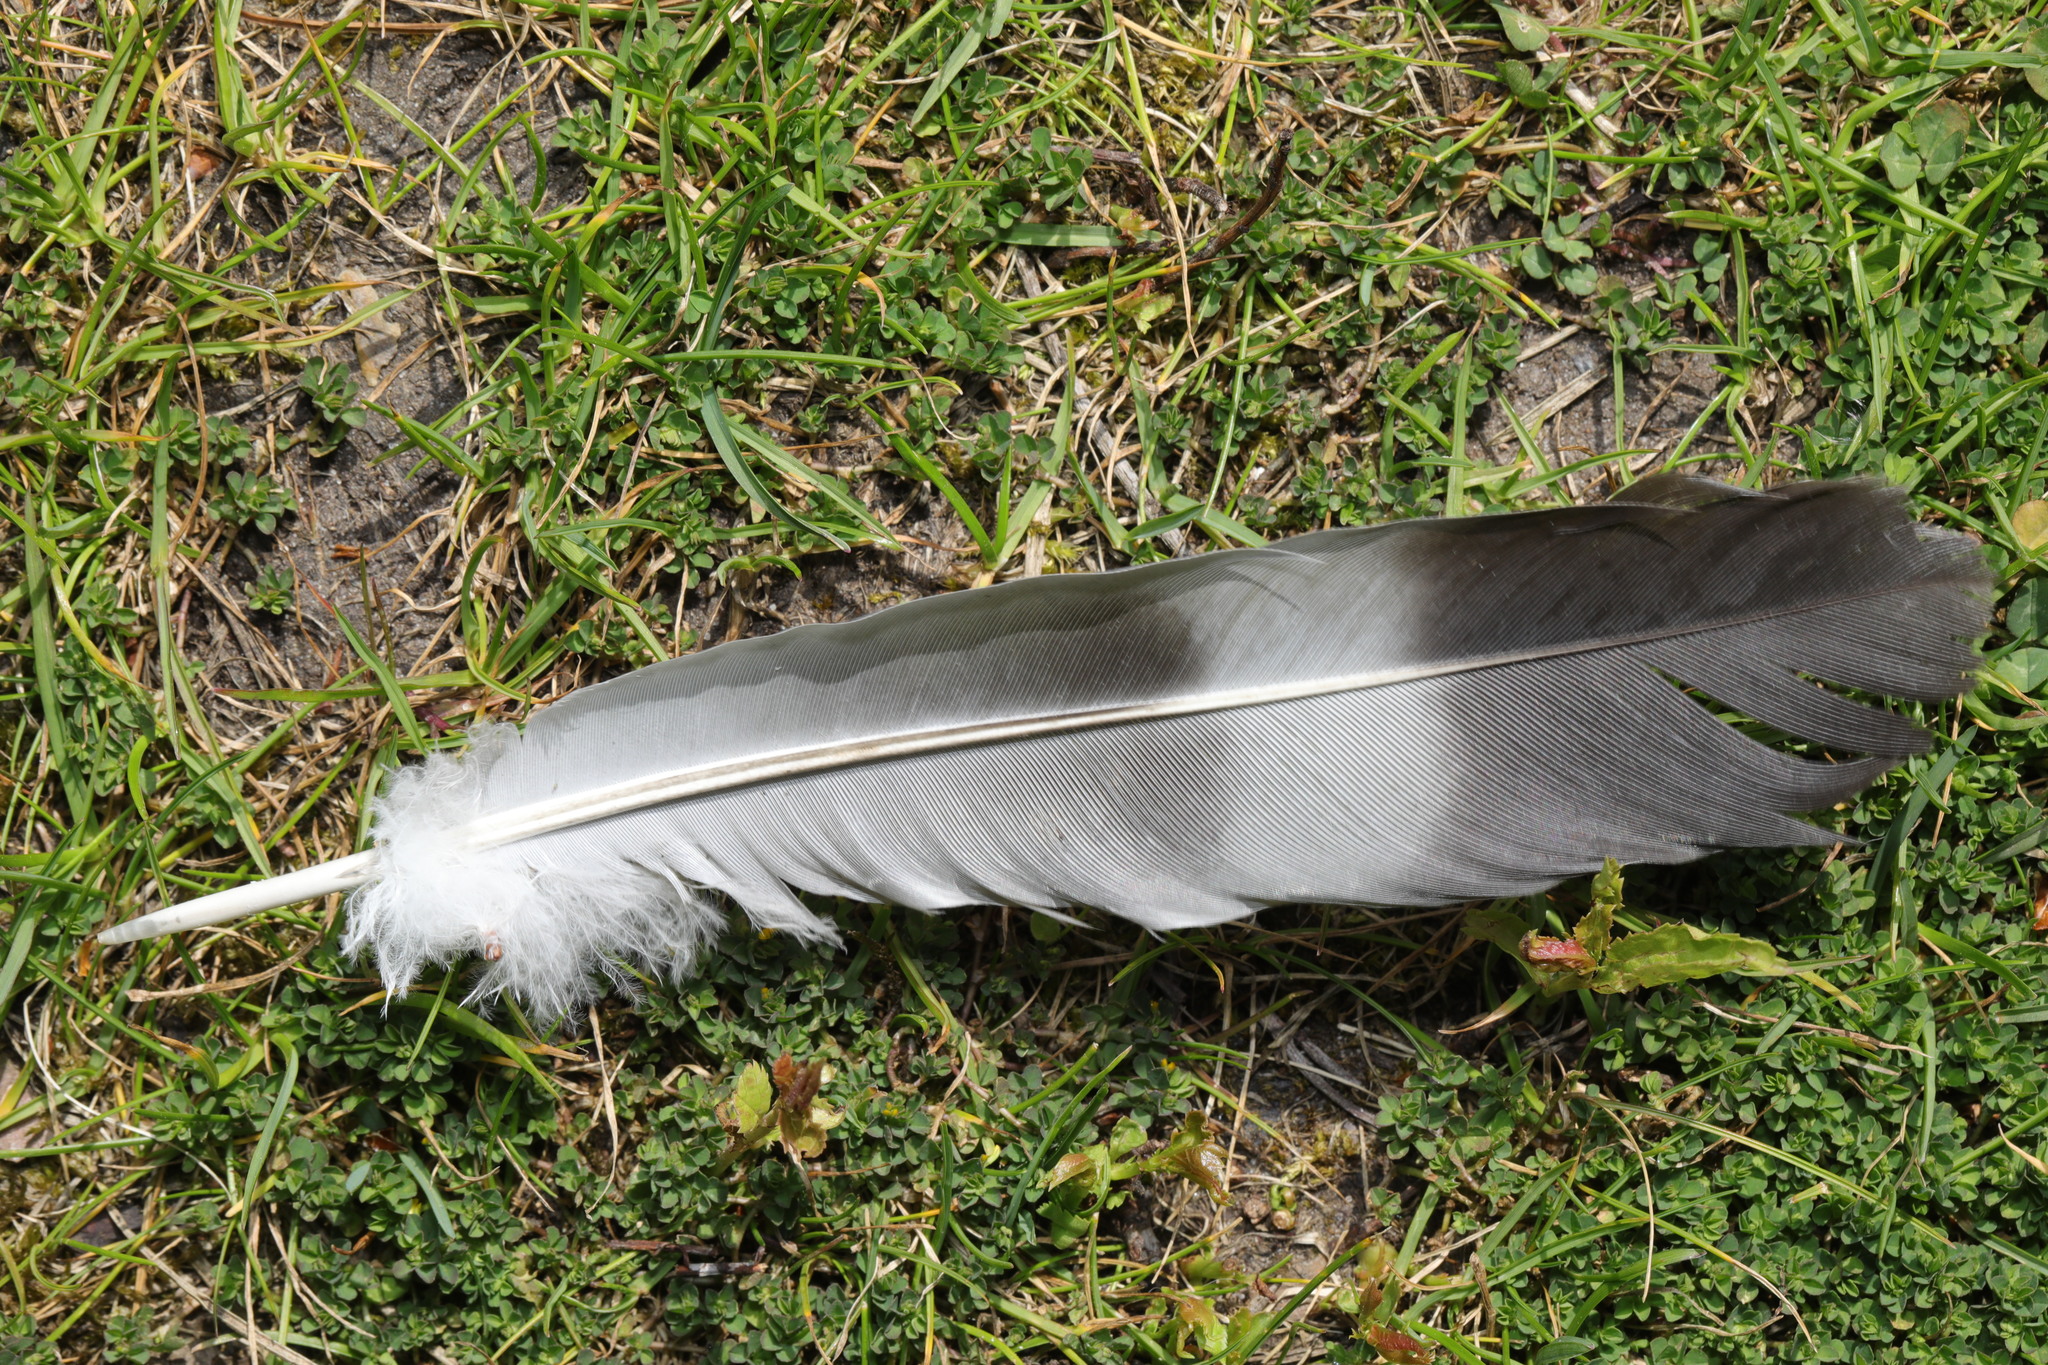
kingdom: Animalia
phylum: Chordata
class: Aves
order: Columbiformes
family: Columbidae
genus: Columba
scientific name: Columba palumbus
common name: Common wood pigeon
